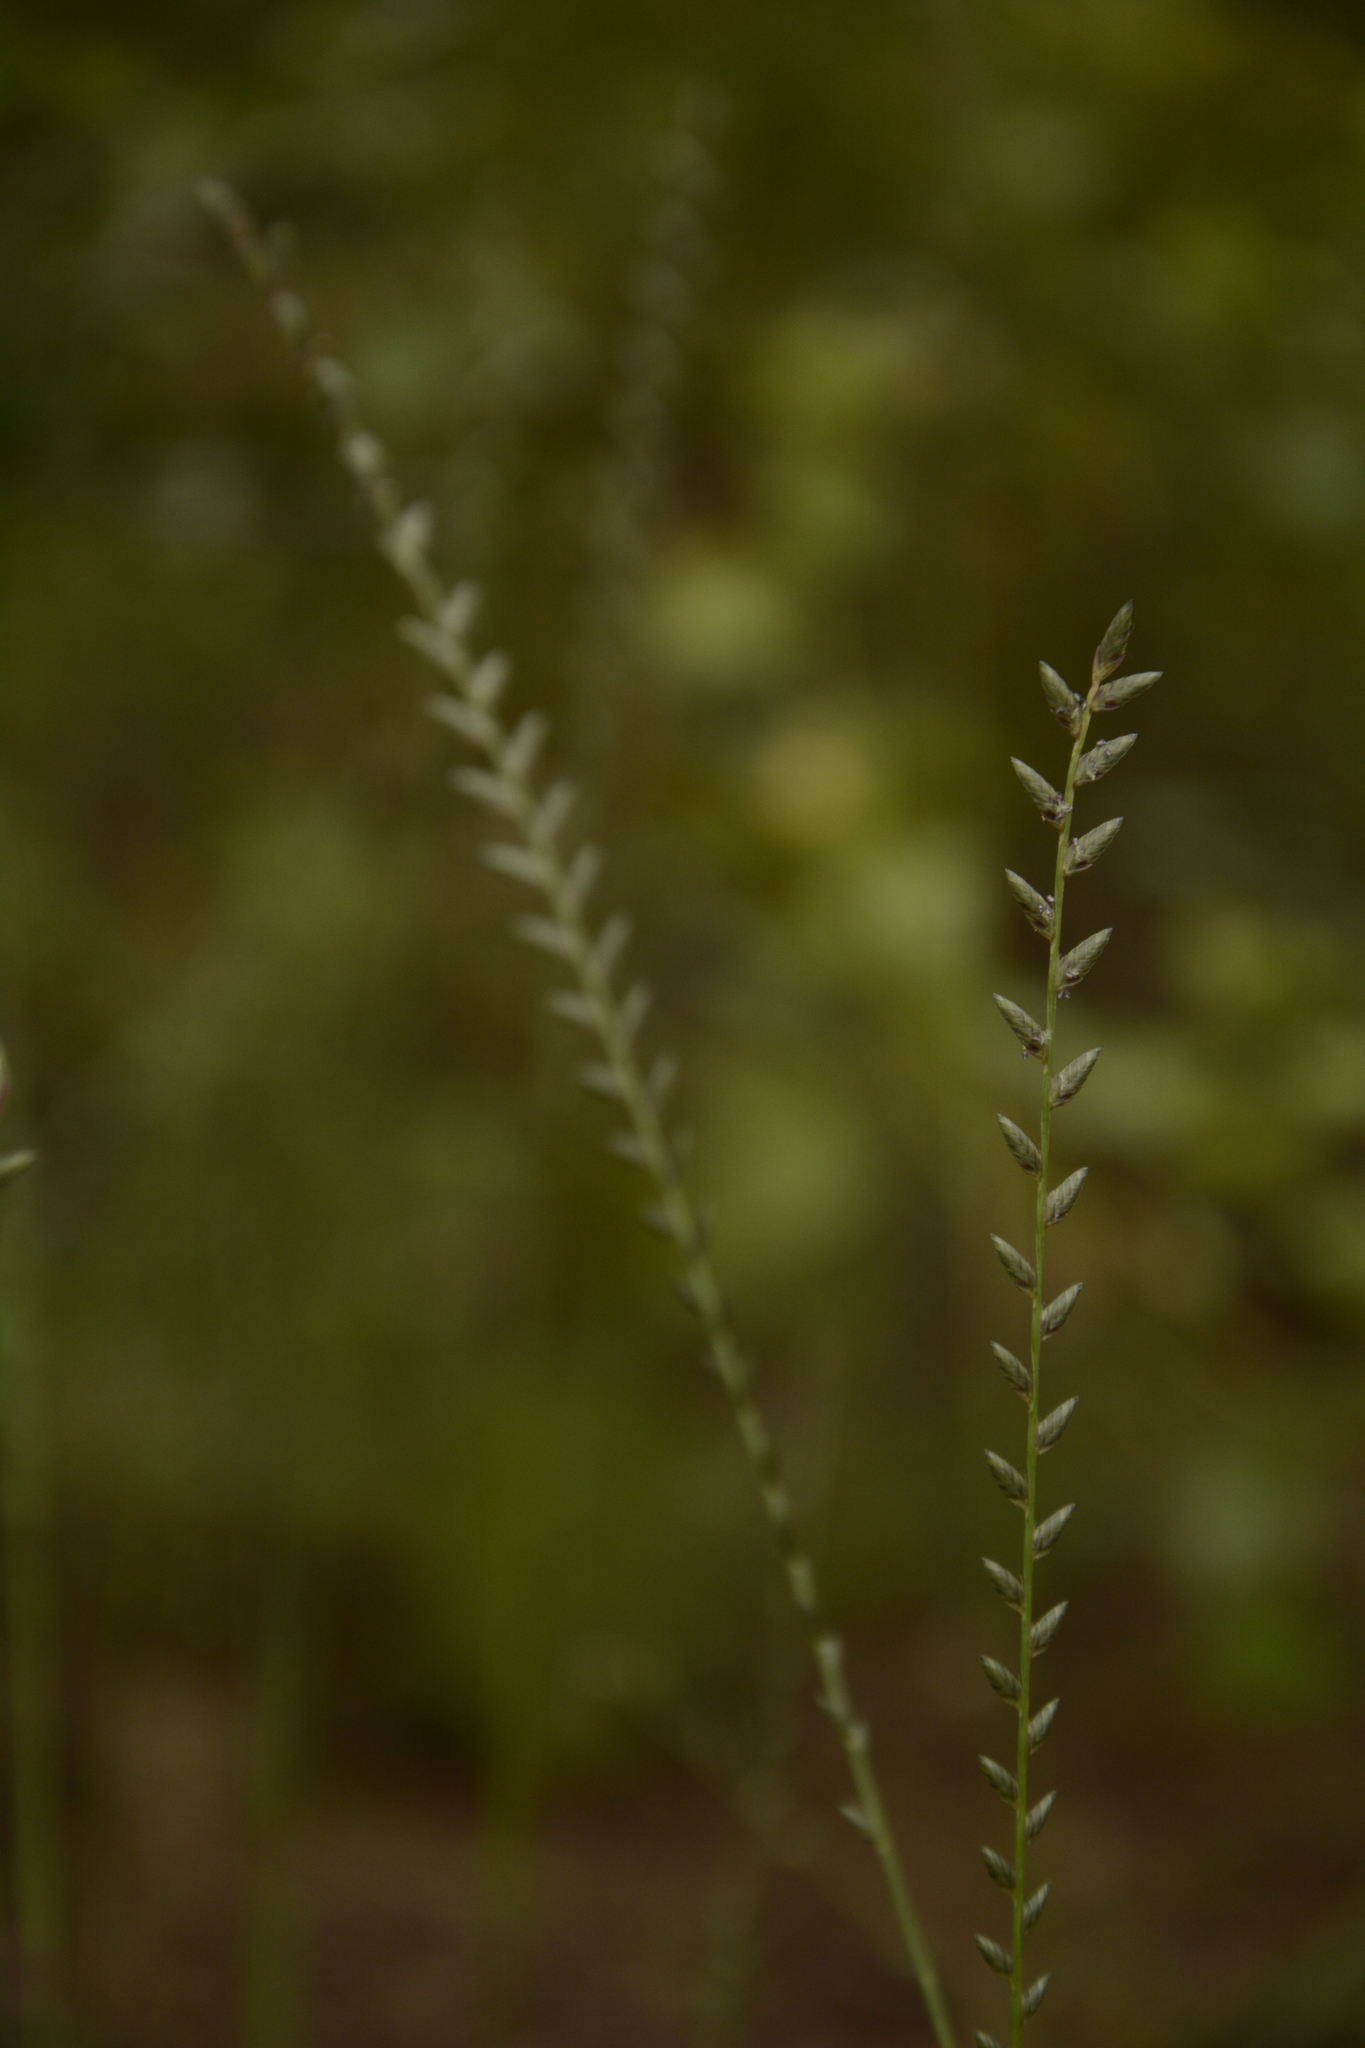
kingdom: Plantae
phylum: Tracheophyta
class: Liliopsida
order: Poales
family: Poaceae
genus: Eragrostiella
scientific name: Eragrostiella bifaria
